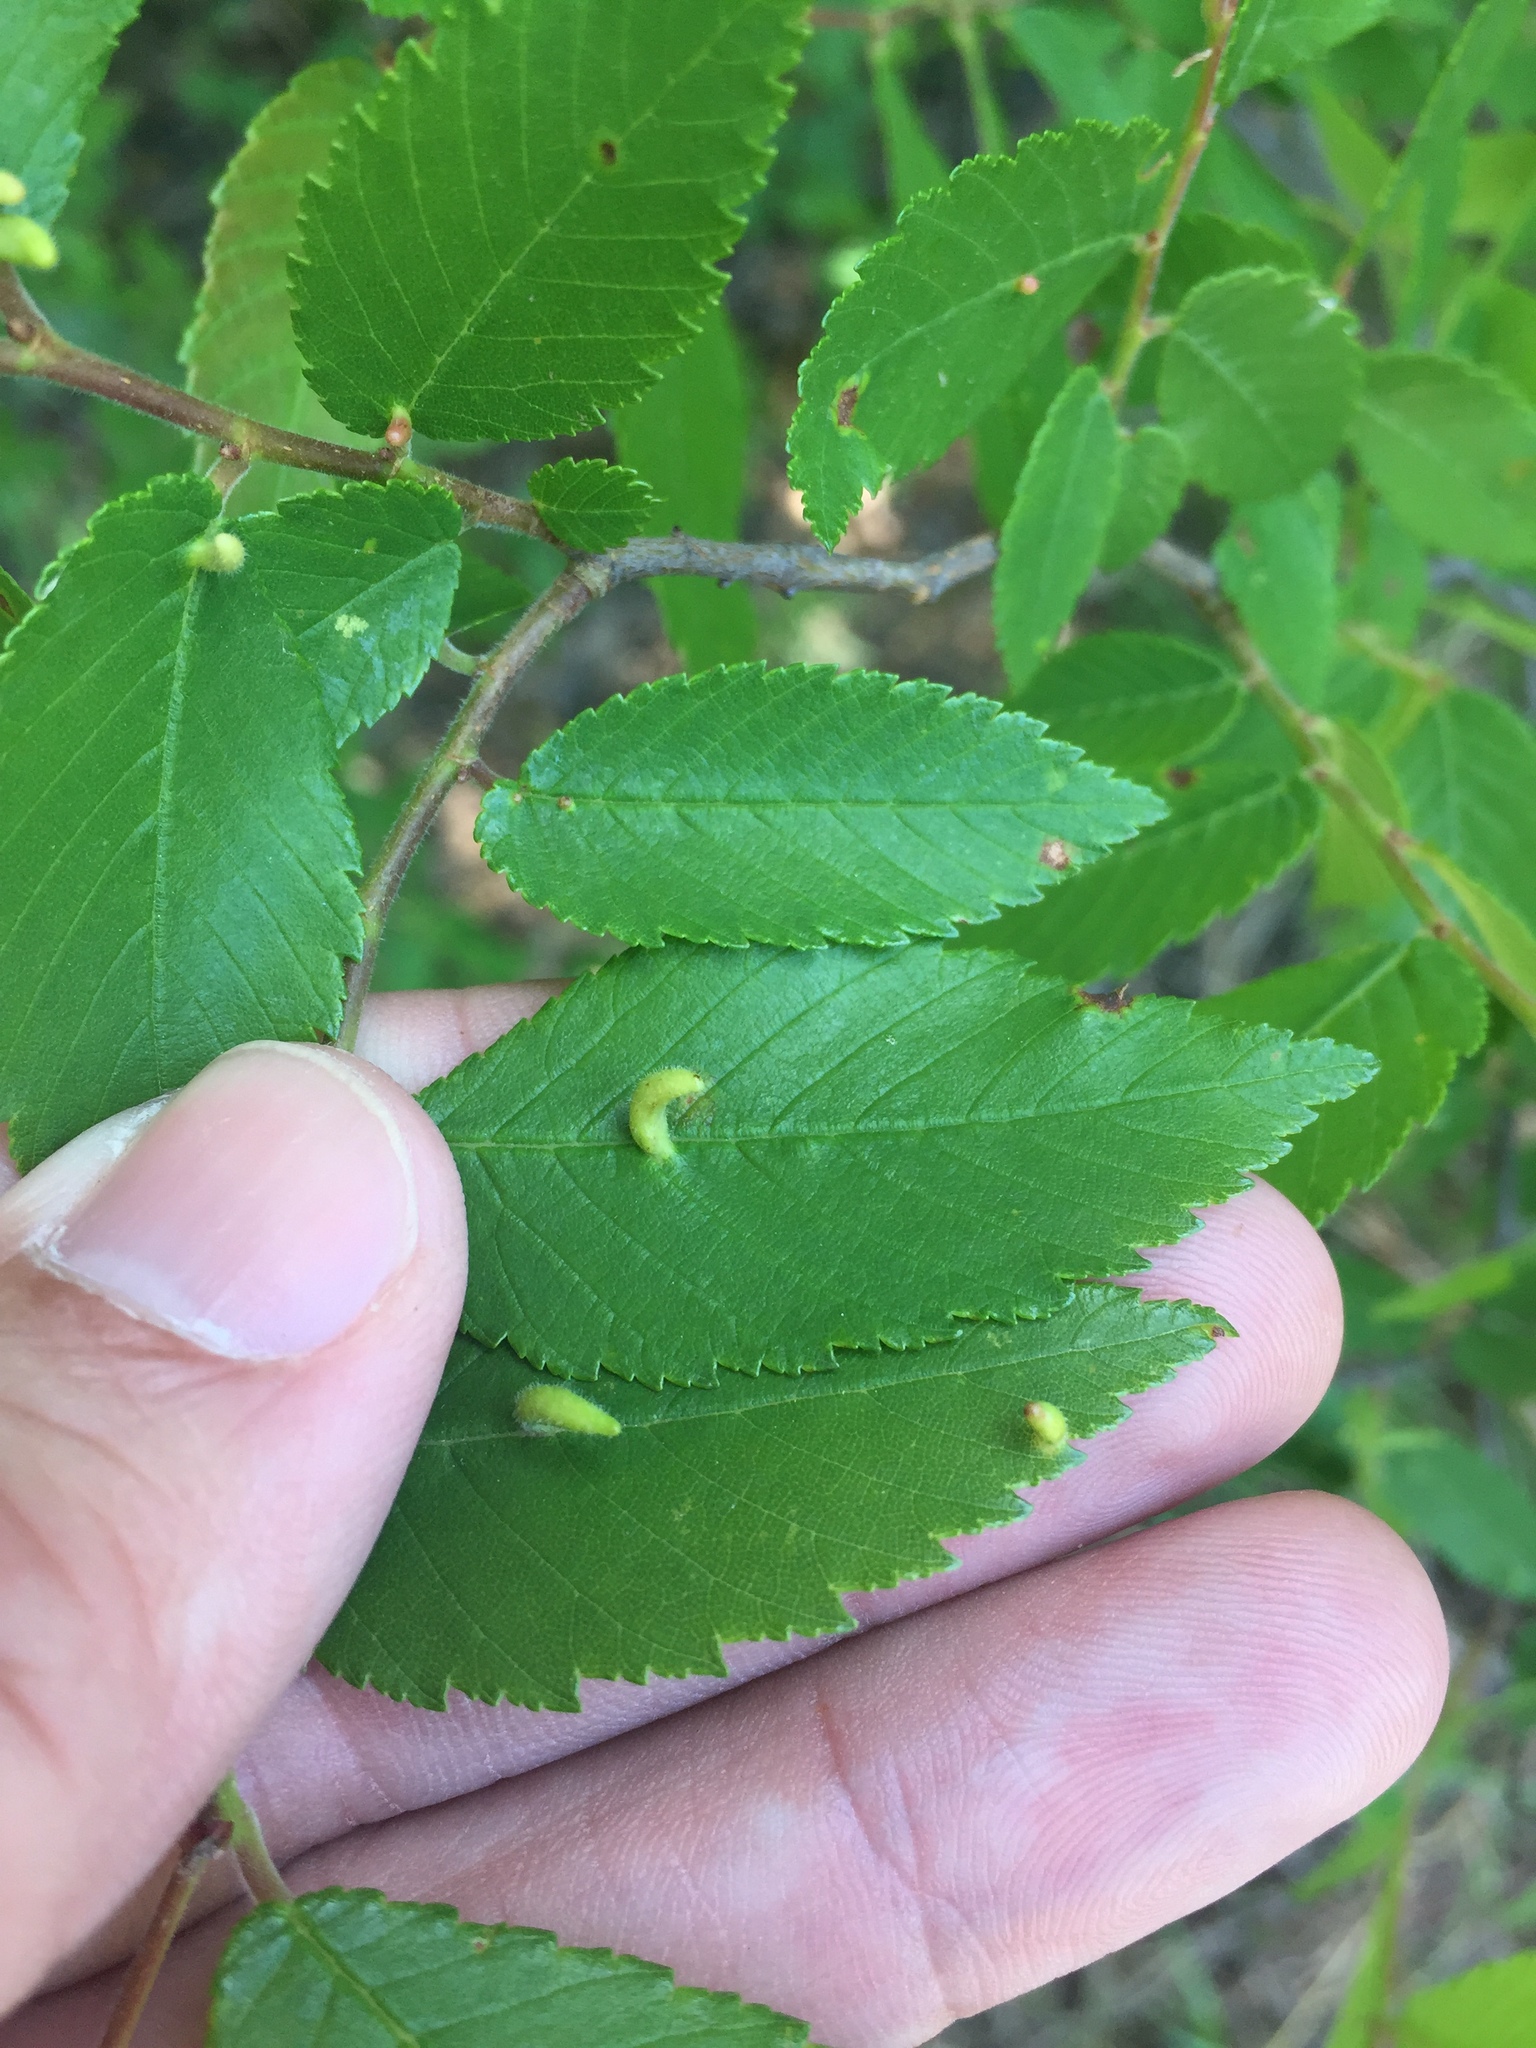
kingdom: Animalia
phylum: Arthropoda
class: Arachnida
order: Trombidiformes
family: Eriophyidae
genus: Aceria
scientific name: Aceria
